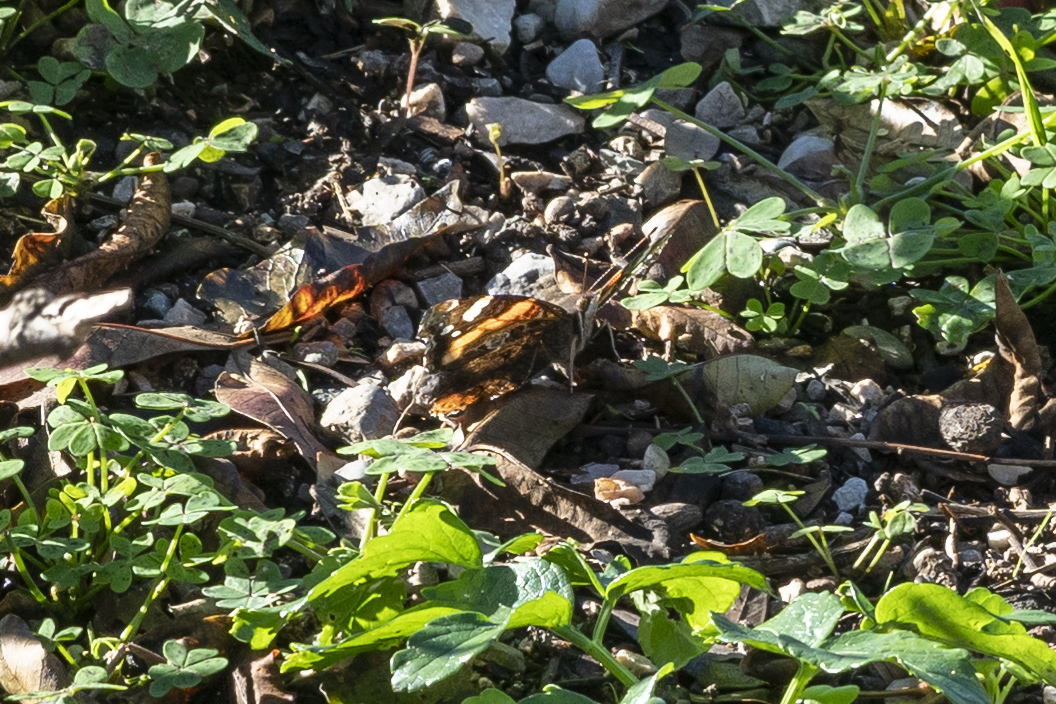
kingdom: Animalia
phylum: Arthropoda
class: Insecta
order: Lepidoptera
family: Nymphalidae
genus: Vanessa
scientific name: Vanessa atalanta
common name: Red admiral
